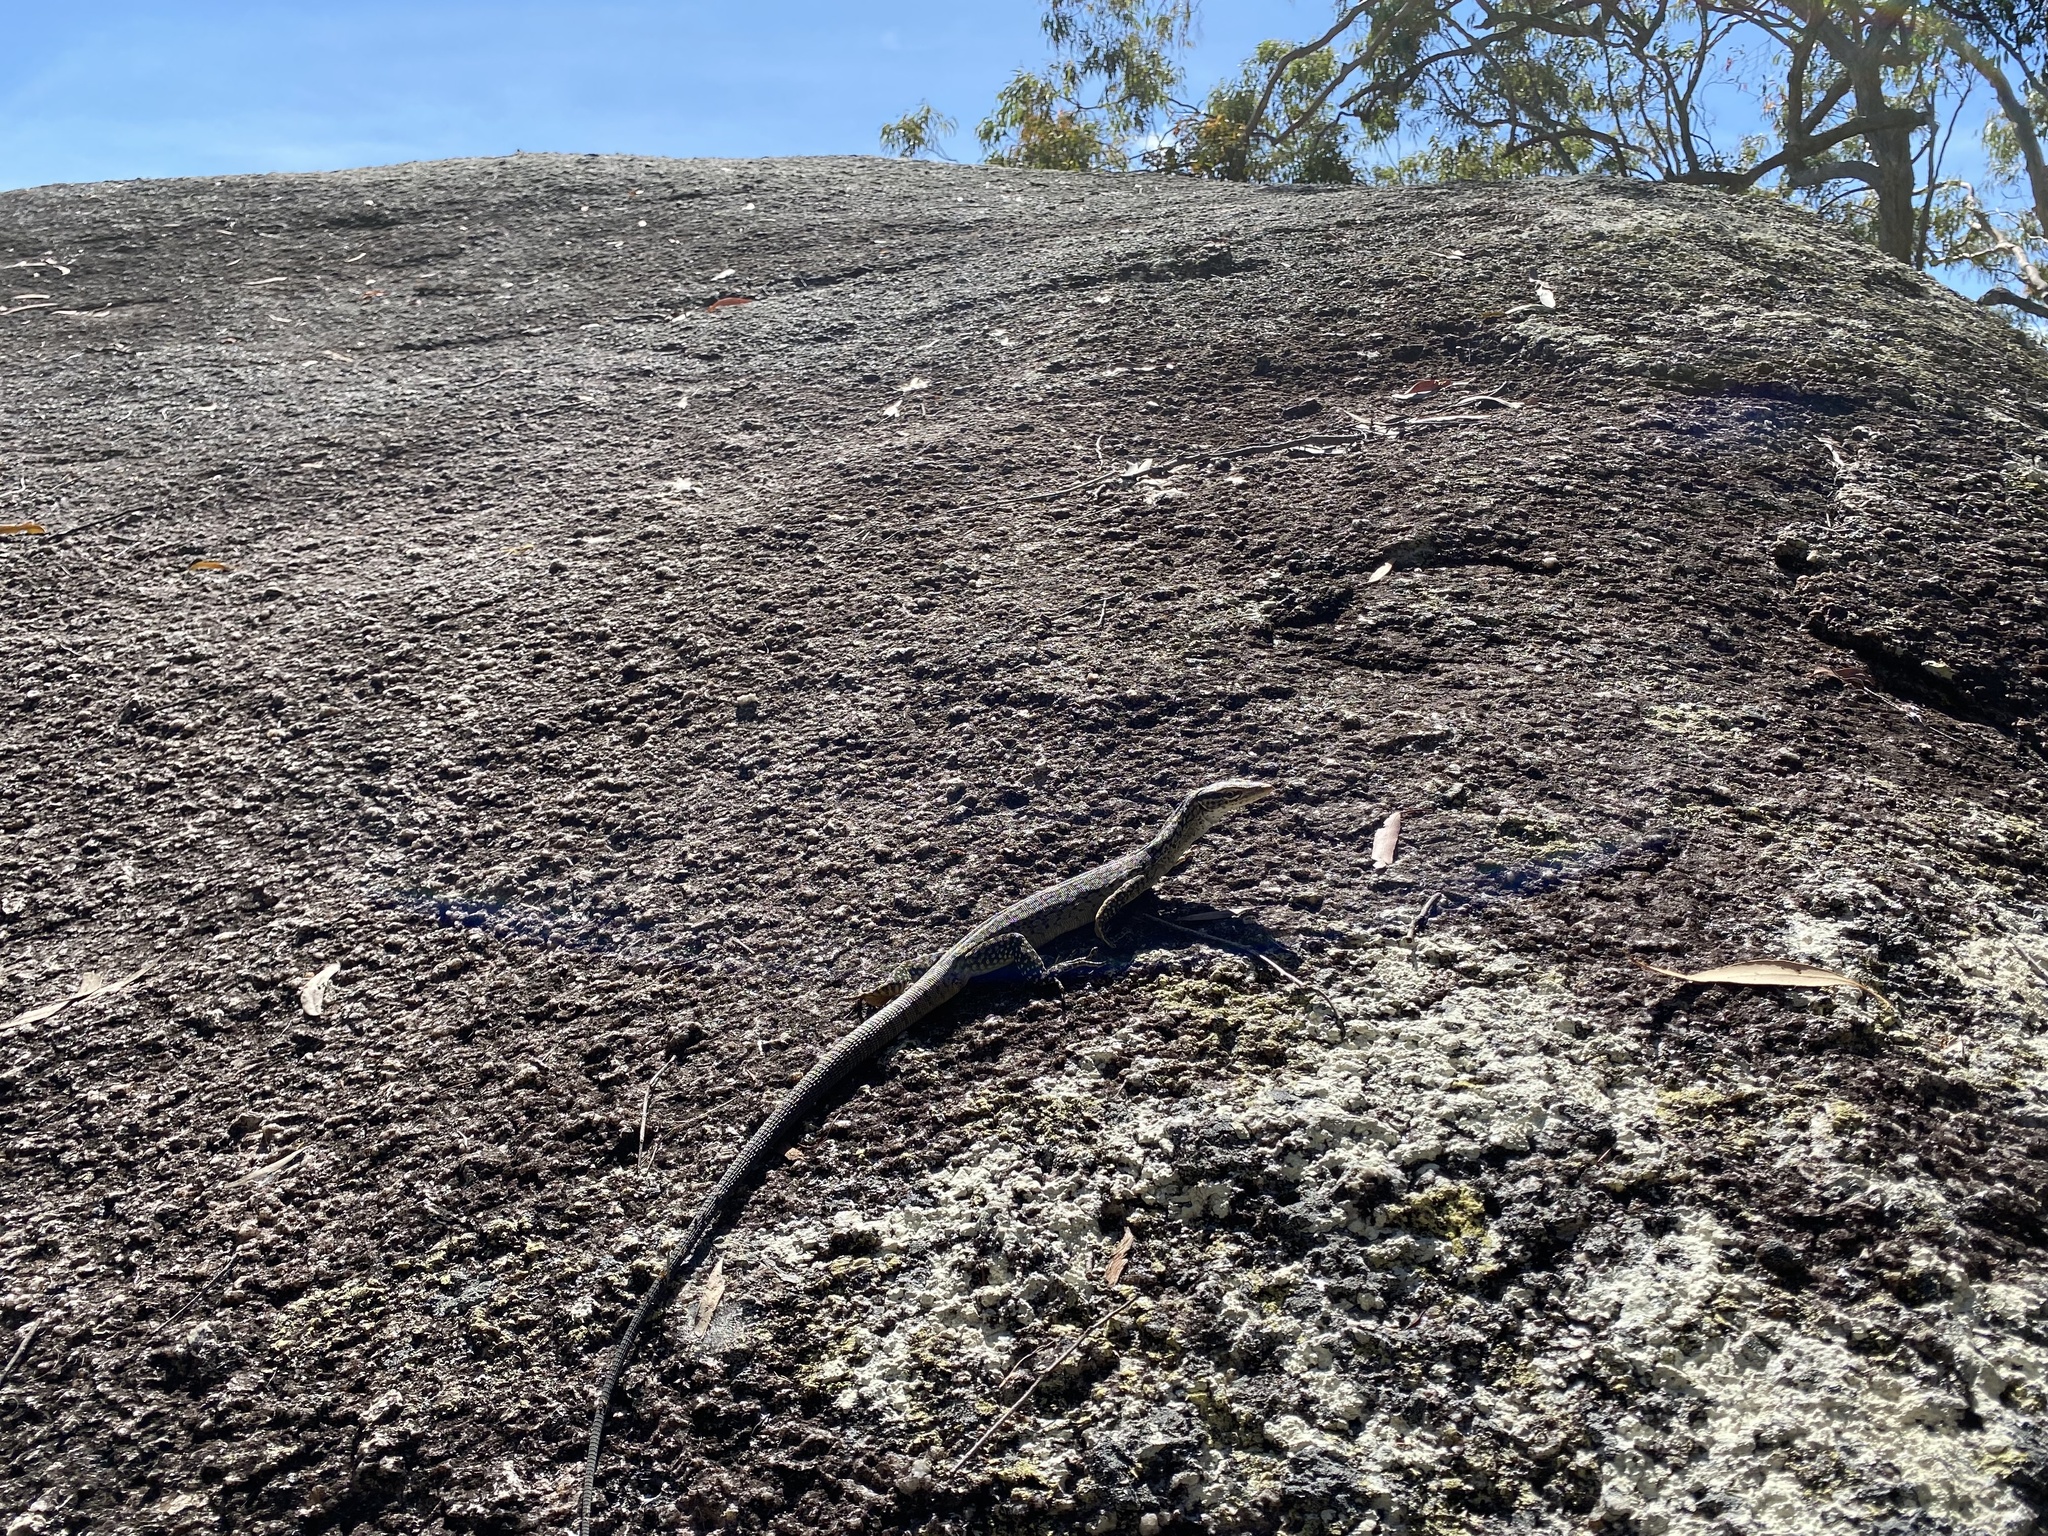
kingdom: Animalia
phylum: Chordata
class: Squamata
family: Varanidae
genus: Varanus
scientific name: Varanus tristis
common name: Arid monitor
